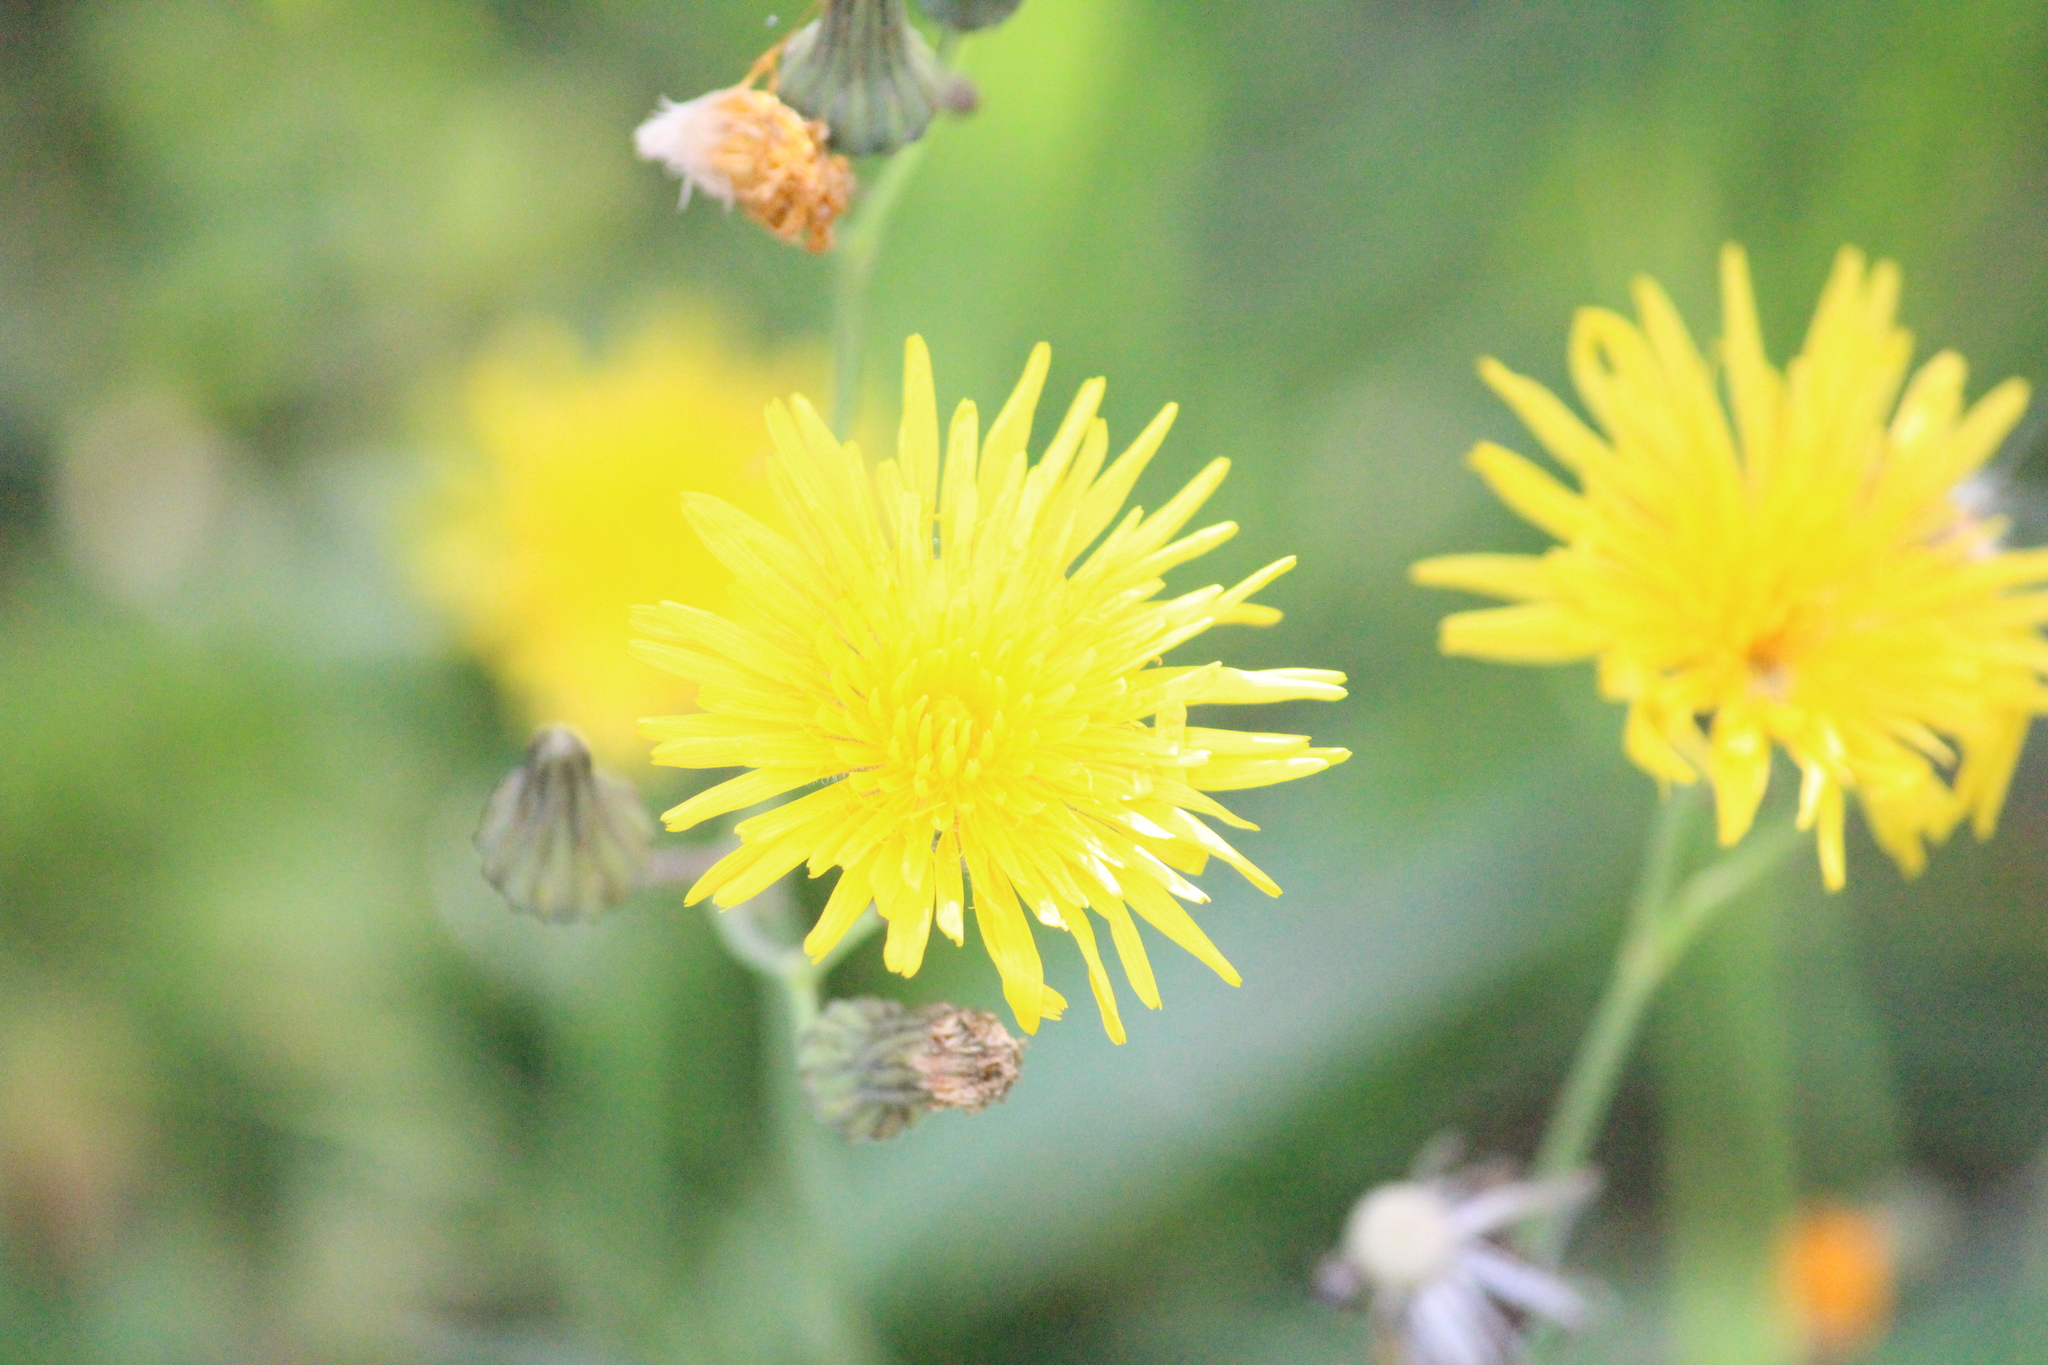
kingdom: Plantae
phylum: Tracheophyta
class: Magnoliopsida
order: Asterales
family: Asteraceae
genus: Sonchus
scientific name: Sonchus arvensis
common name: Perennial sow-thistle
